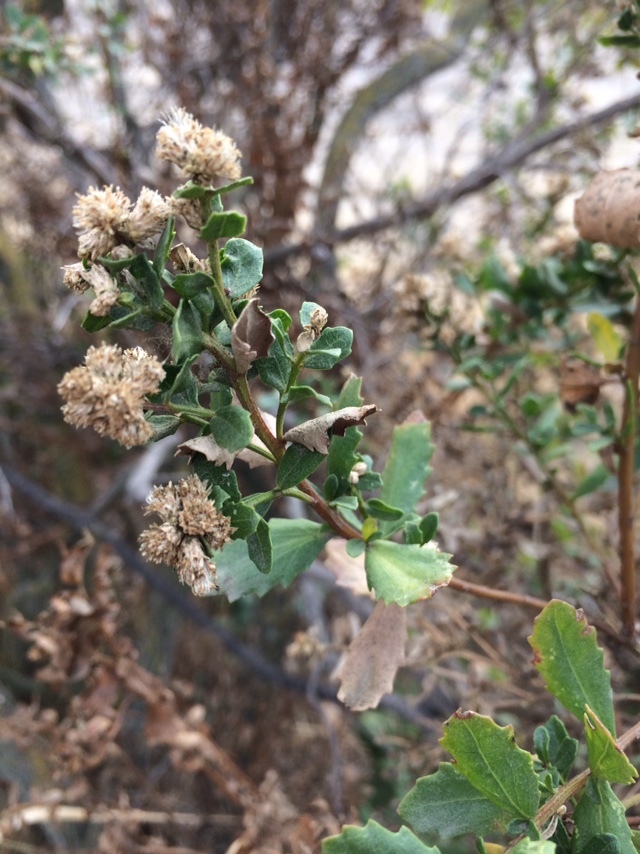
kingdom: Plantae
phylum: Tracheophyta
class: Magnoliopsida
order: Asterales
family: Asteraceae
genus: Baccharis
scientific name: Baccharis pilularis
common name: Coyotebrush
